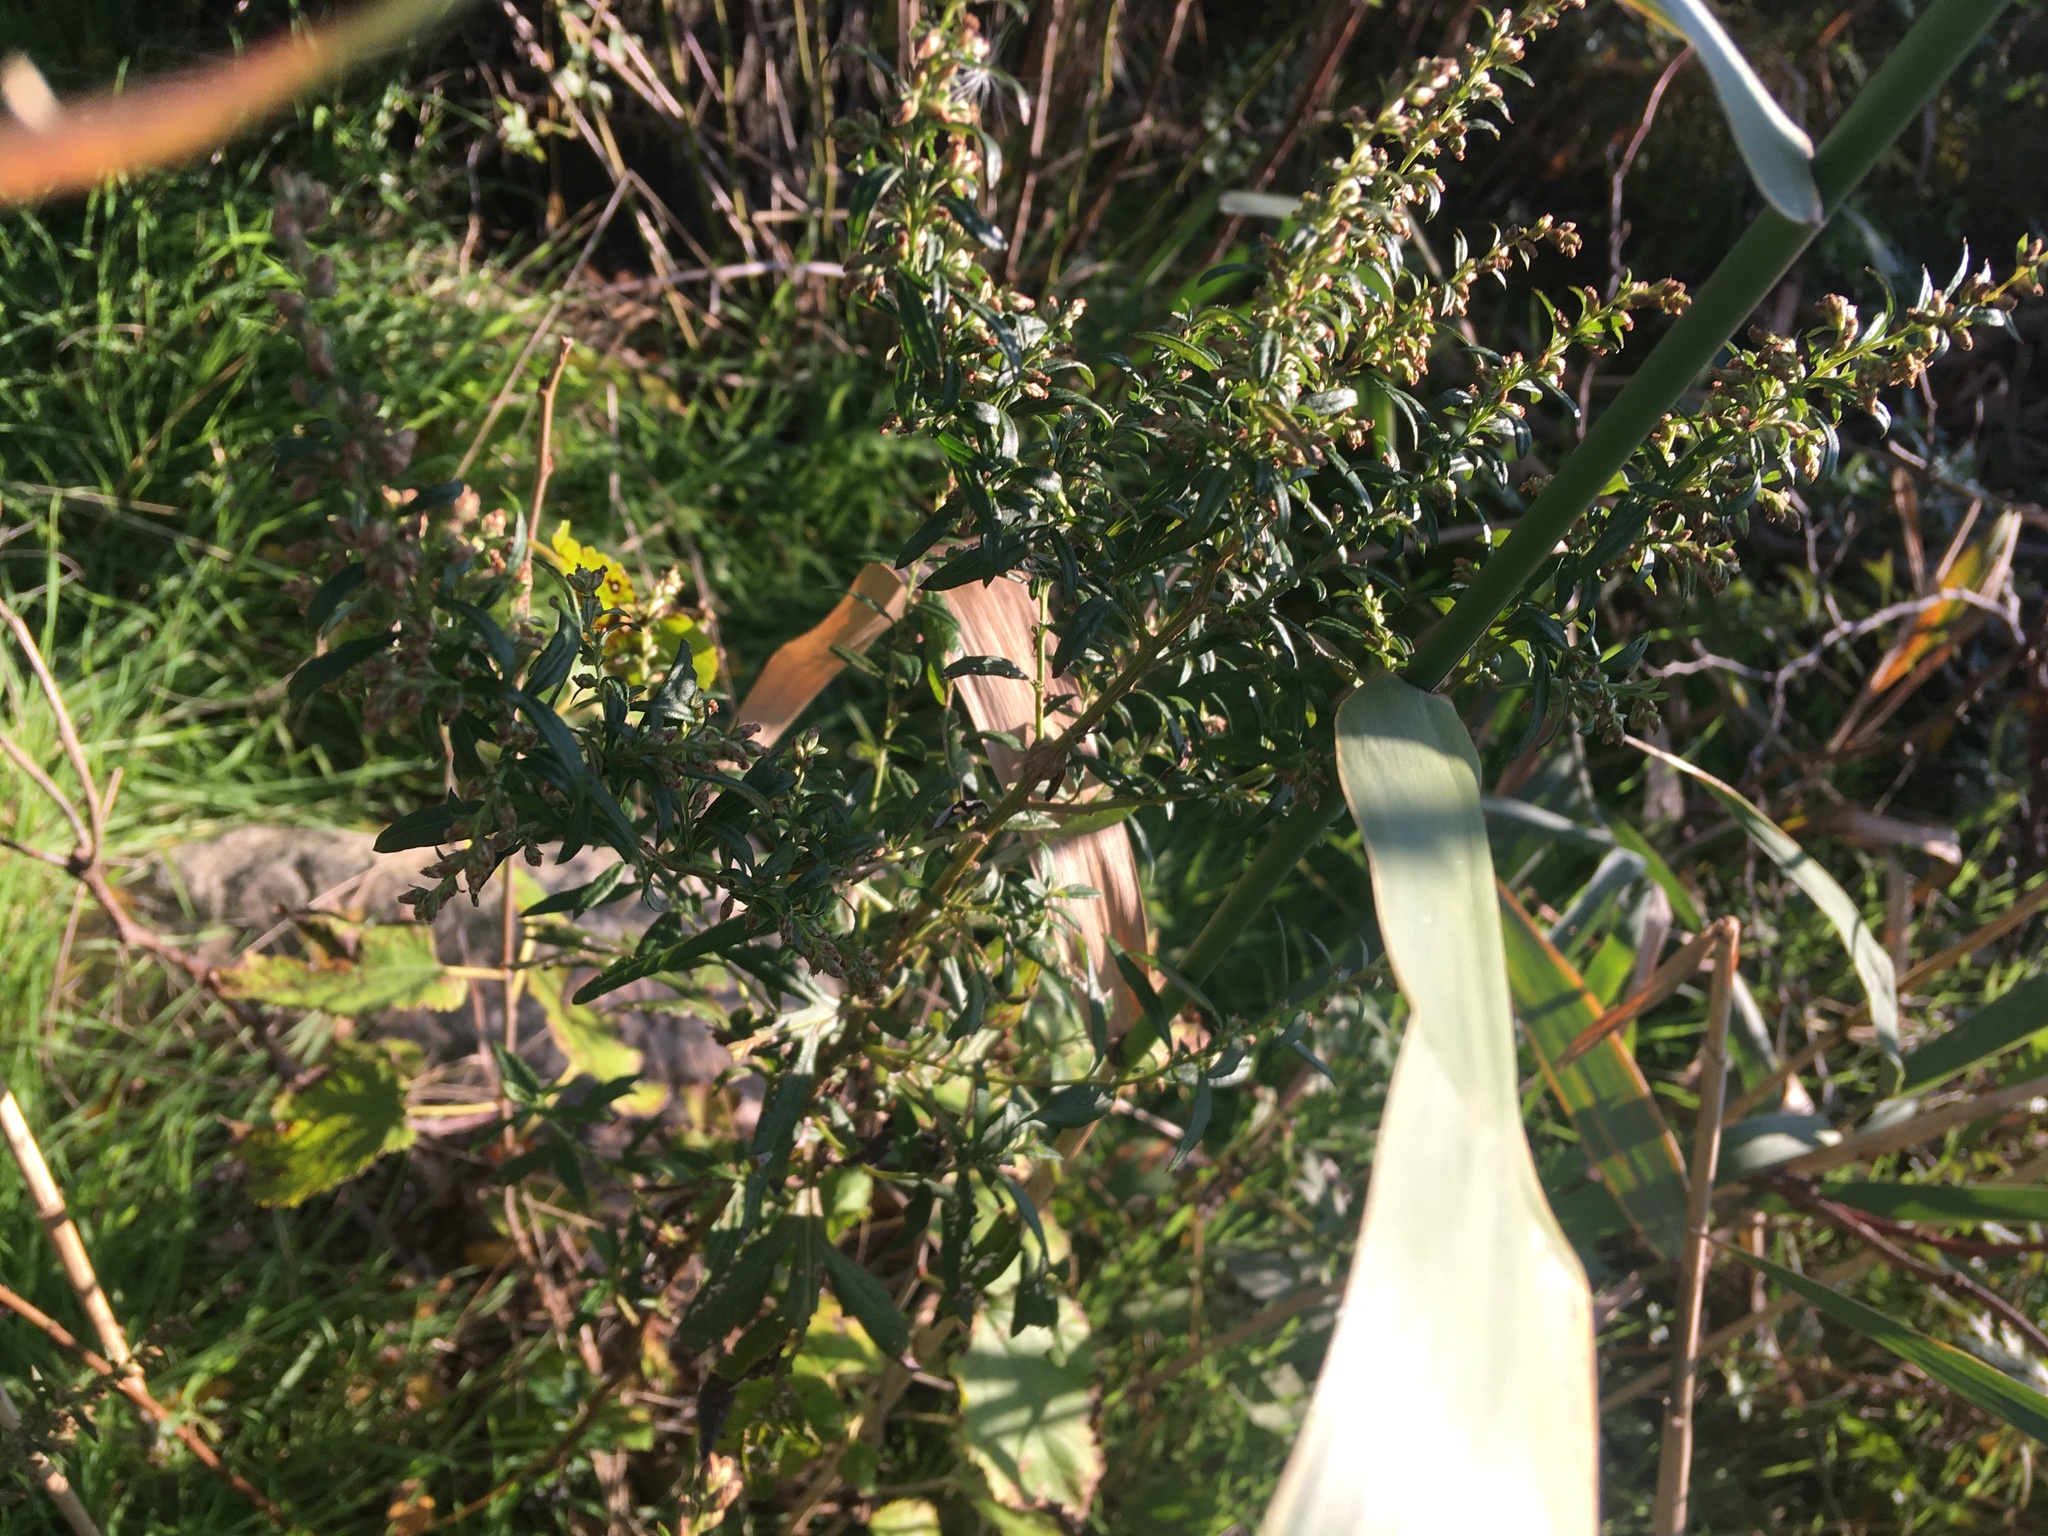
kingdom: Plantae
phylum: Tracheophyta
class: Magnoliopsida
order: Asterales
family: Asteraceae
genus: Artemisia
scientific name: Artemisia vulgaris
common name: Mugwort
